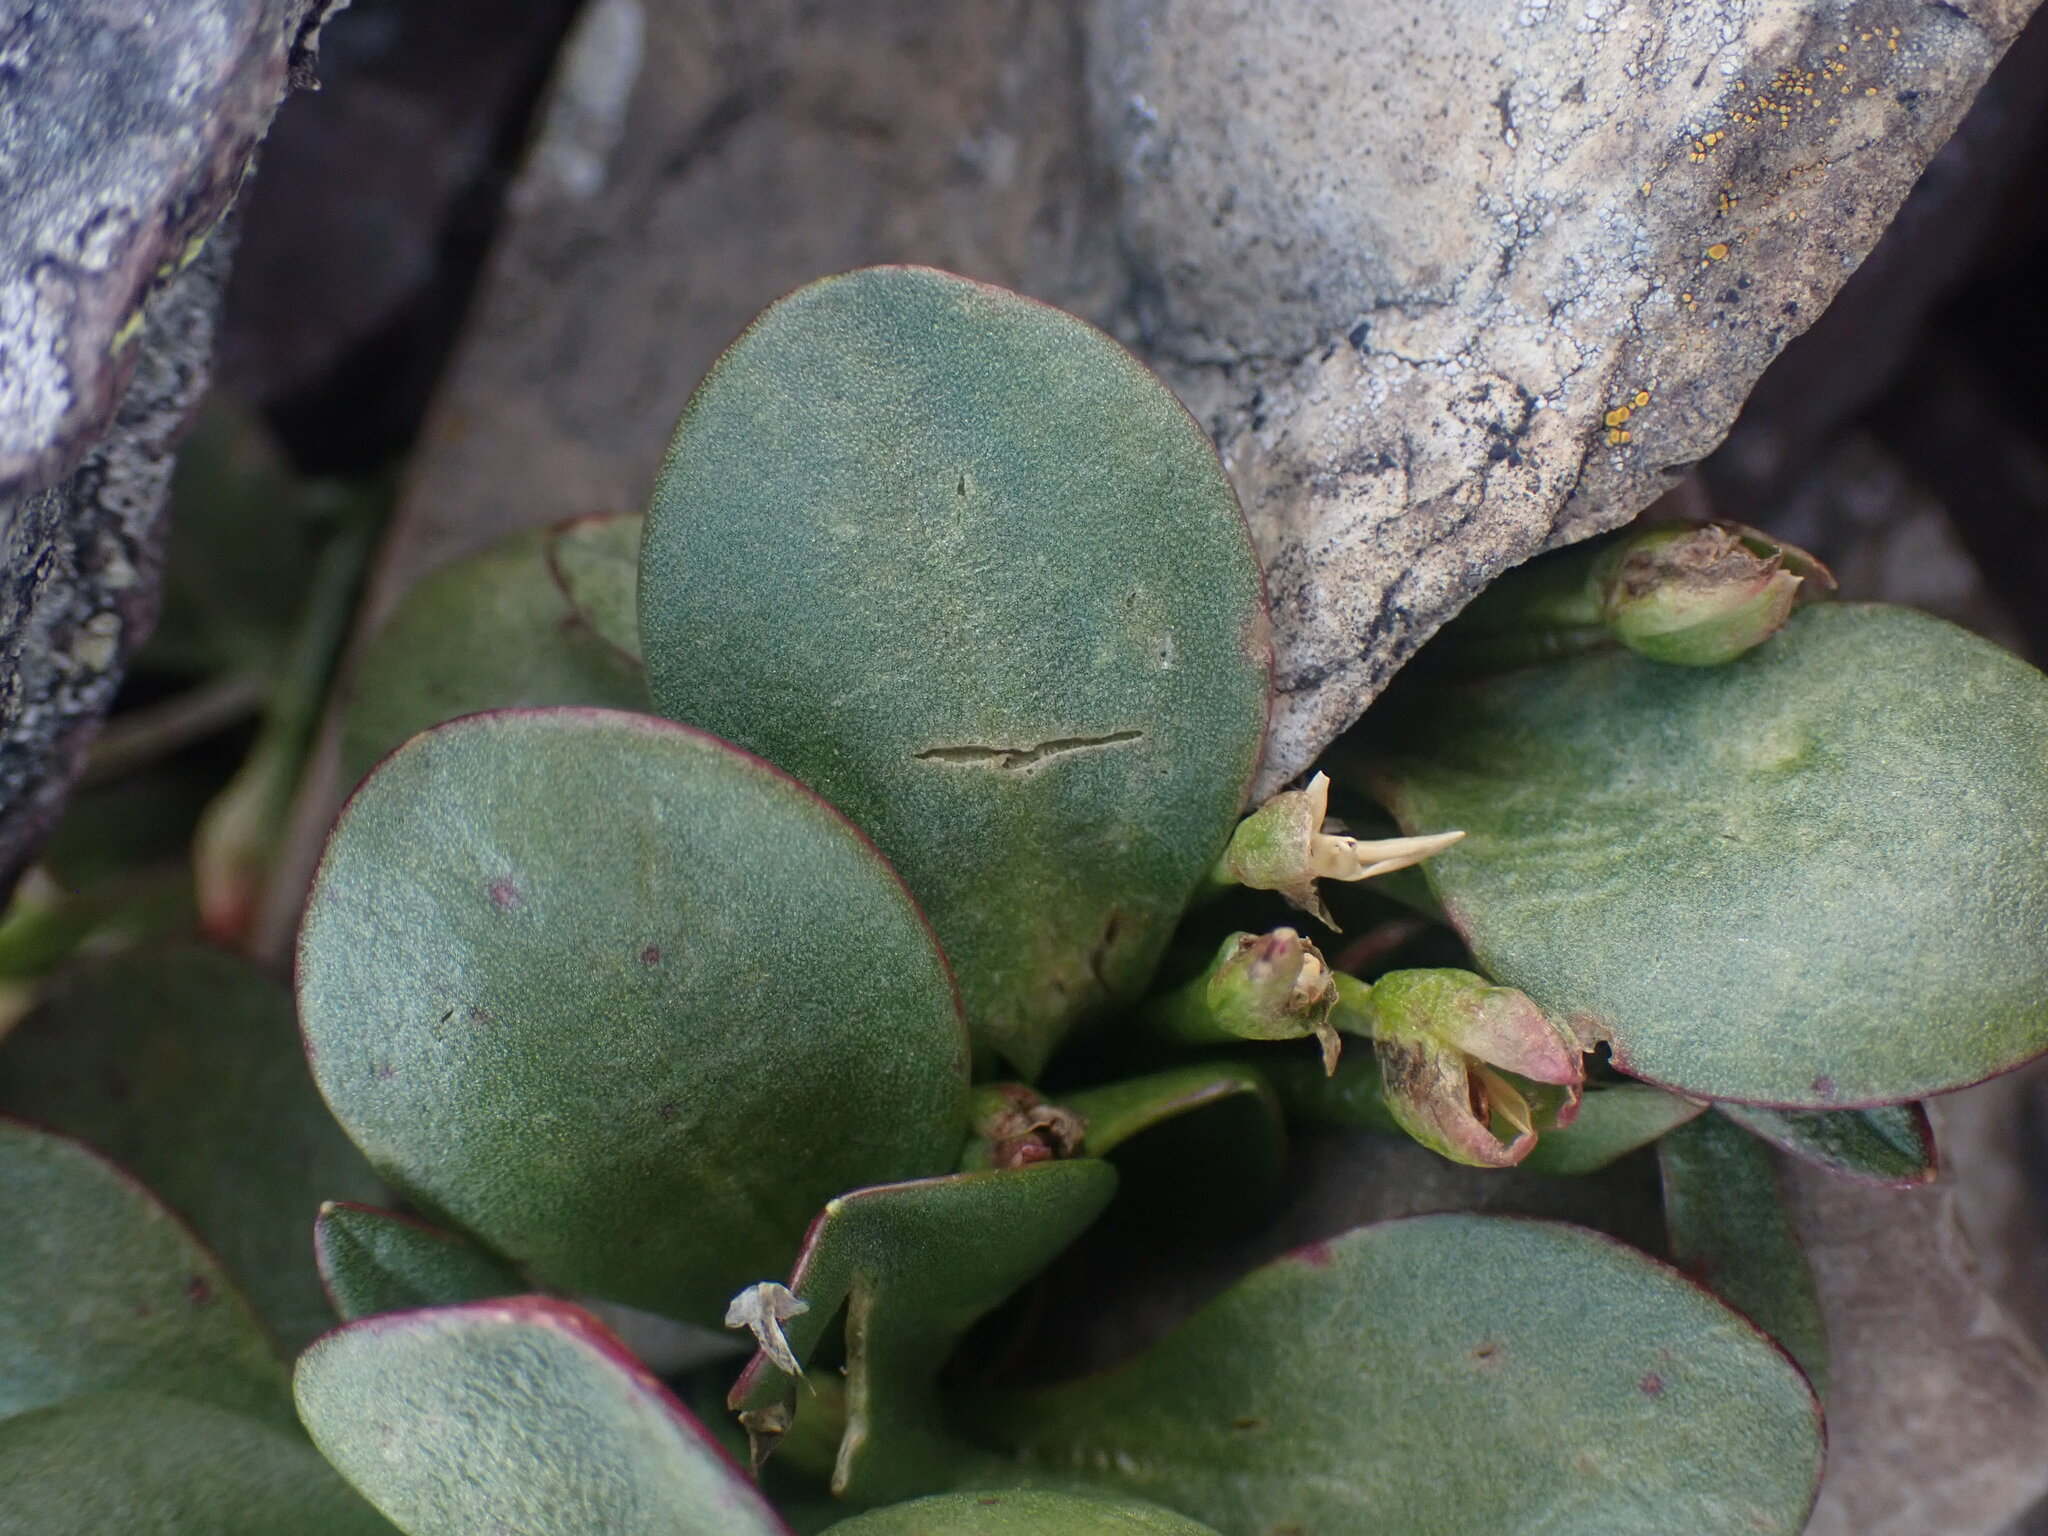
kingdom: Plantae
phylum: Tracheophyta
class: Magnoliopsida
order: Caryophyllales
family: Montiaceae
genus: Claytonia
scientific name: Claytonia megarhiza
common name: Alpine spring beauty
